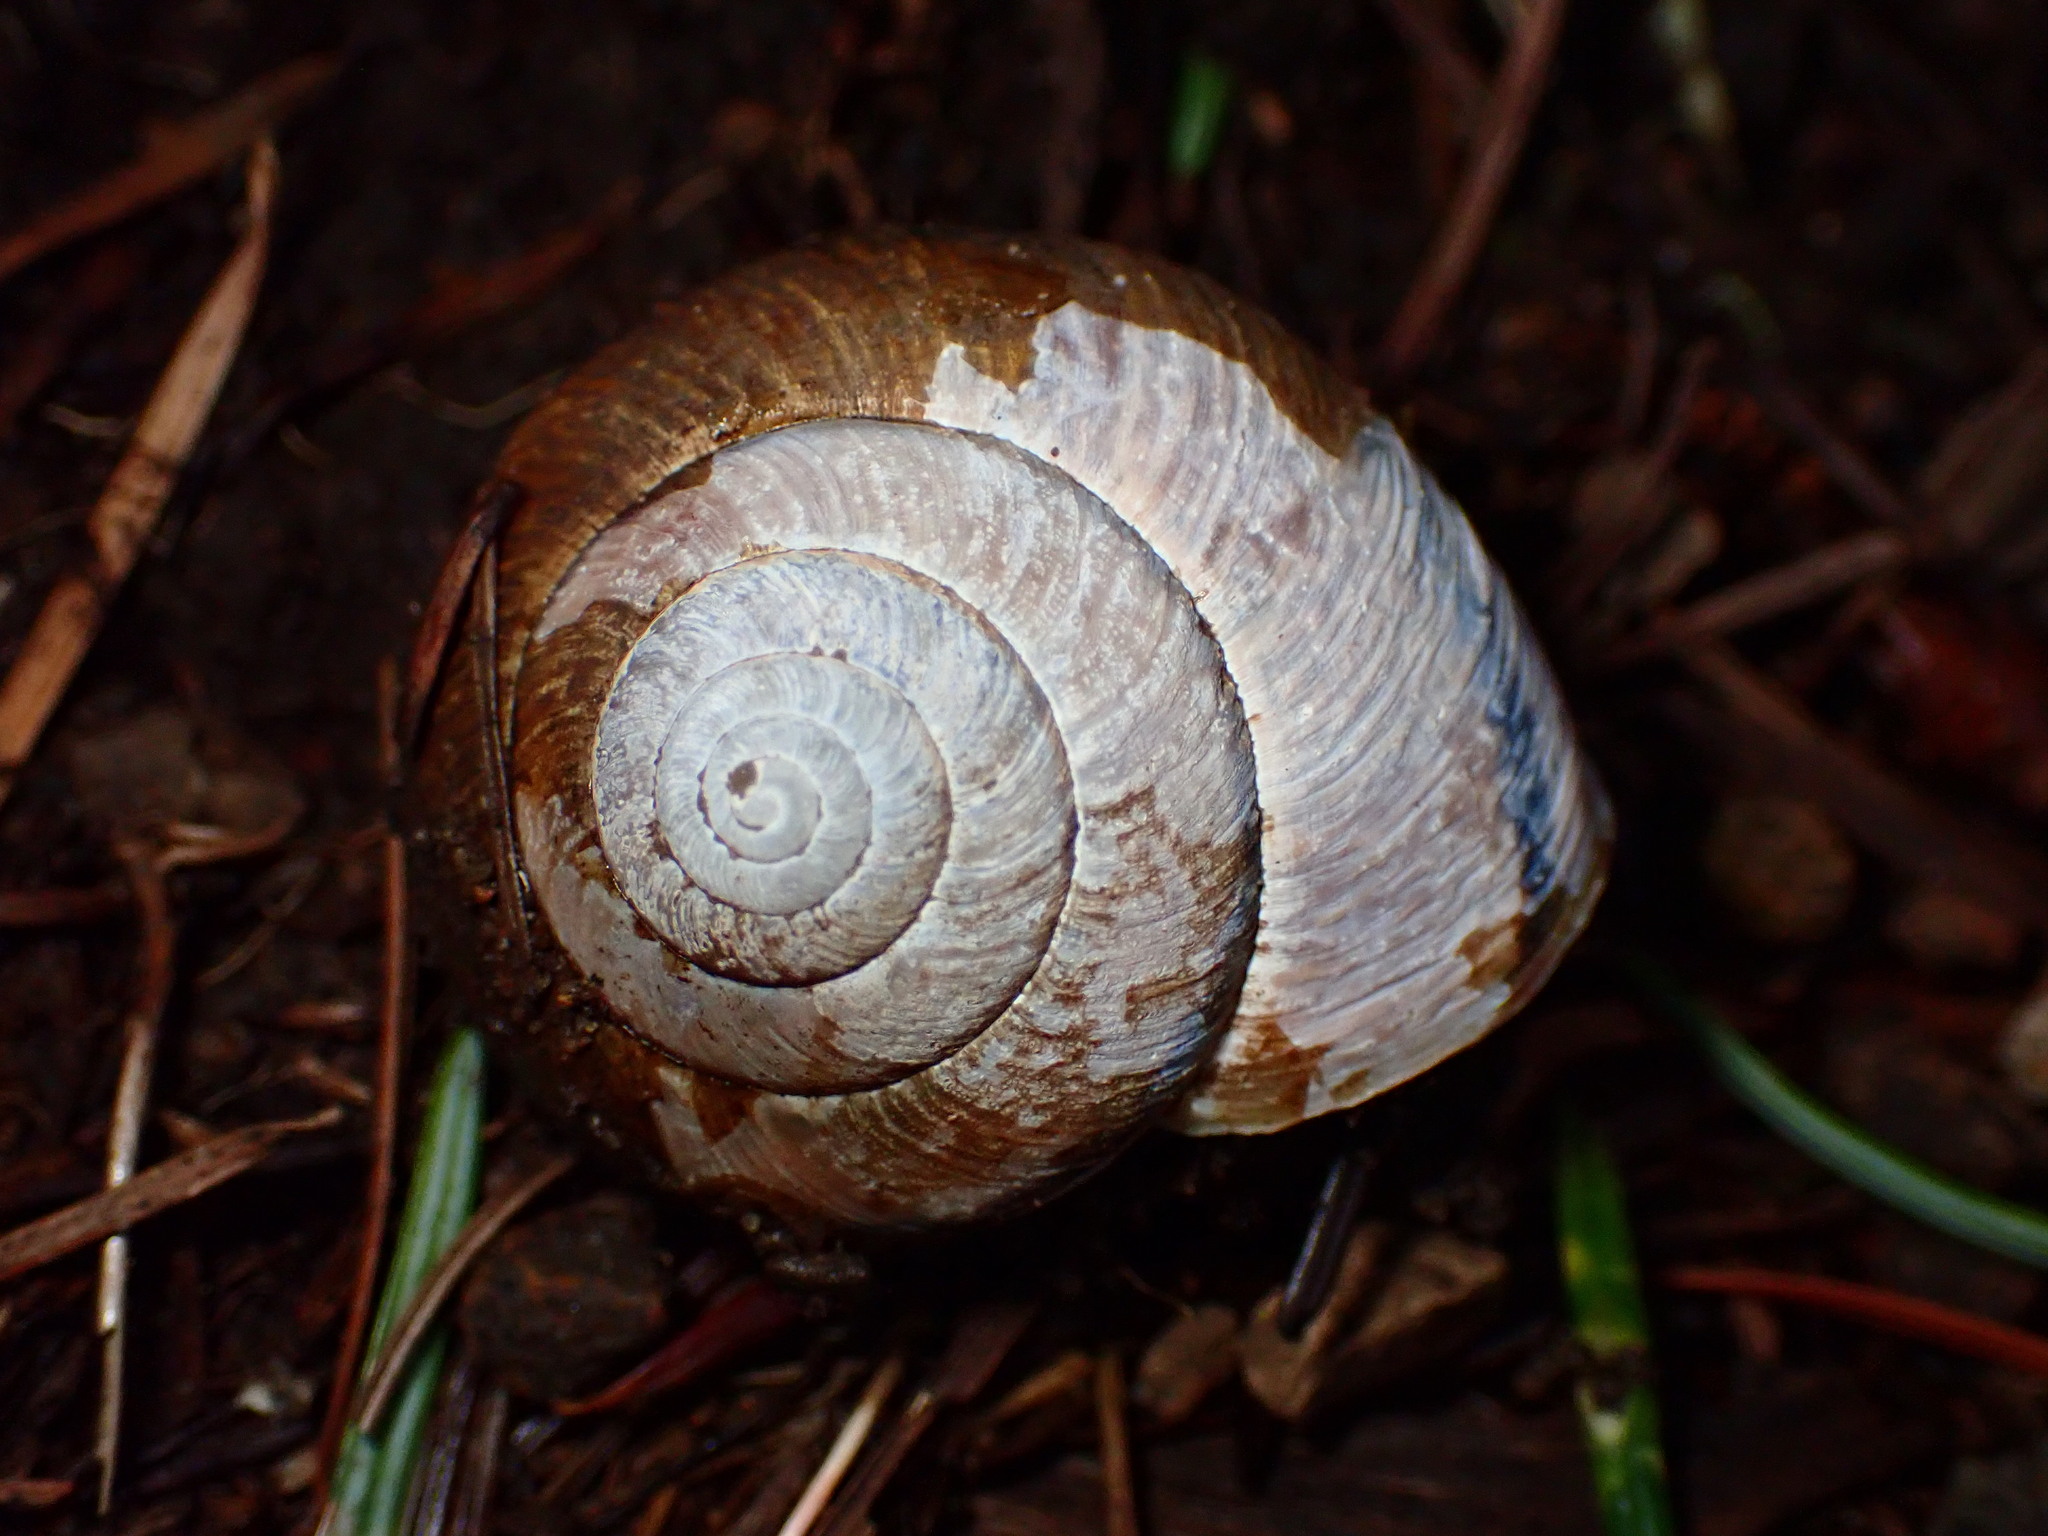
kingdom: Animalia
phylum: Mollusca
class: Gastropoda
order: Stylommatophora
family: Xanthonychidae
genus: Helminthoglypta
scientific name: Helminthoglypta arrosa
